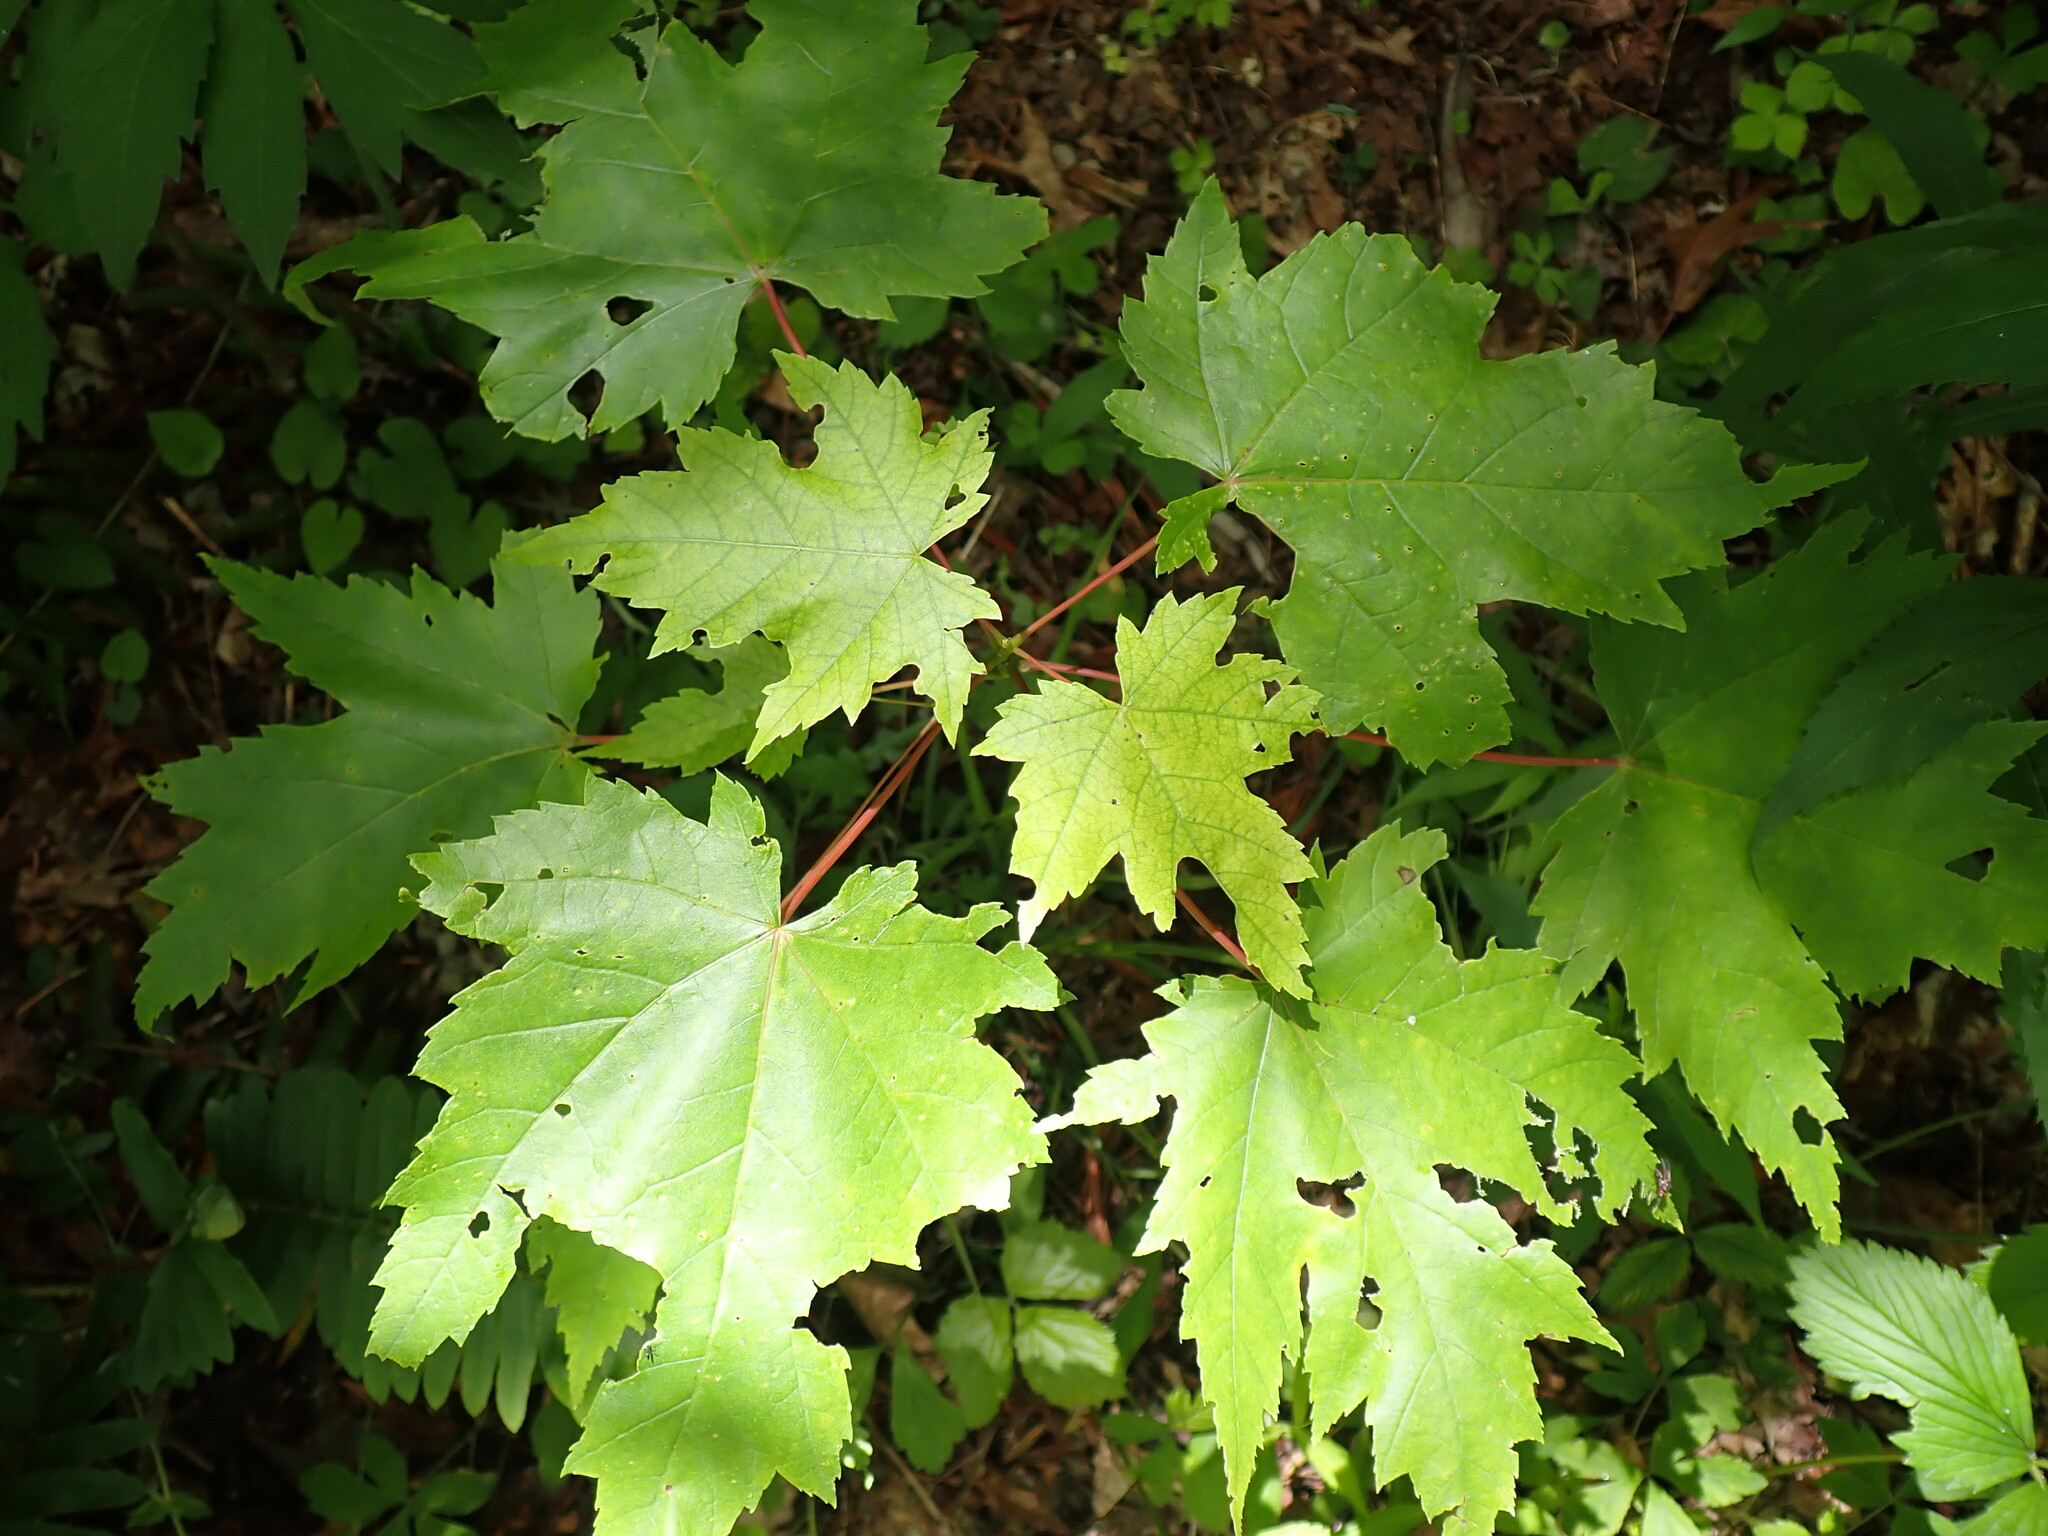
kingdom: Plantae
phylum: Tracheophyta
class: Magnoliopsida
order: Sapindales
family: Sapindaceae
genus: Acer
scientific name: Acer rubrum
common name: Red maple
